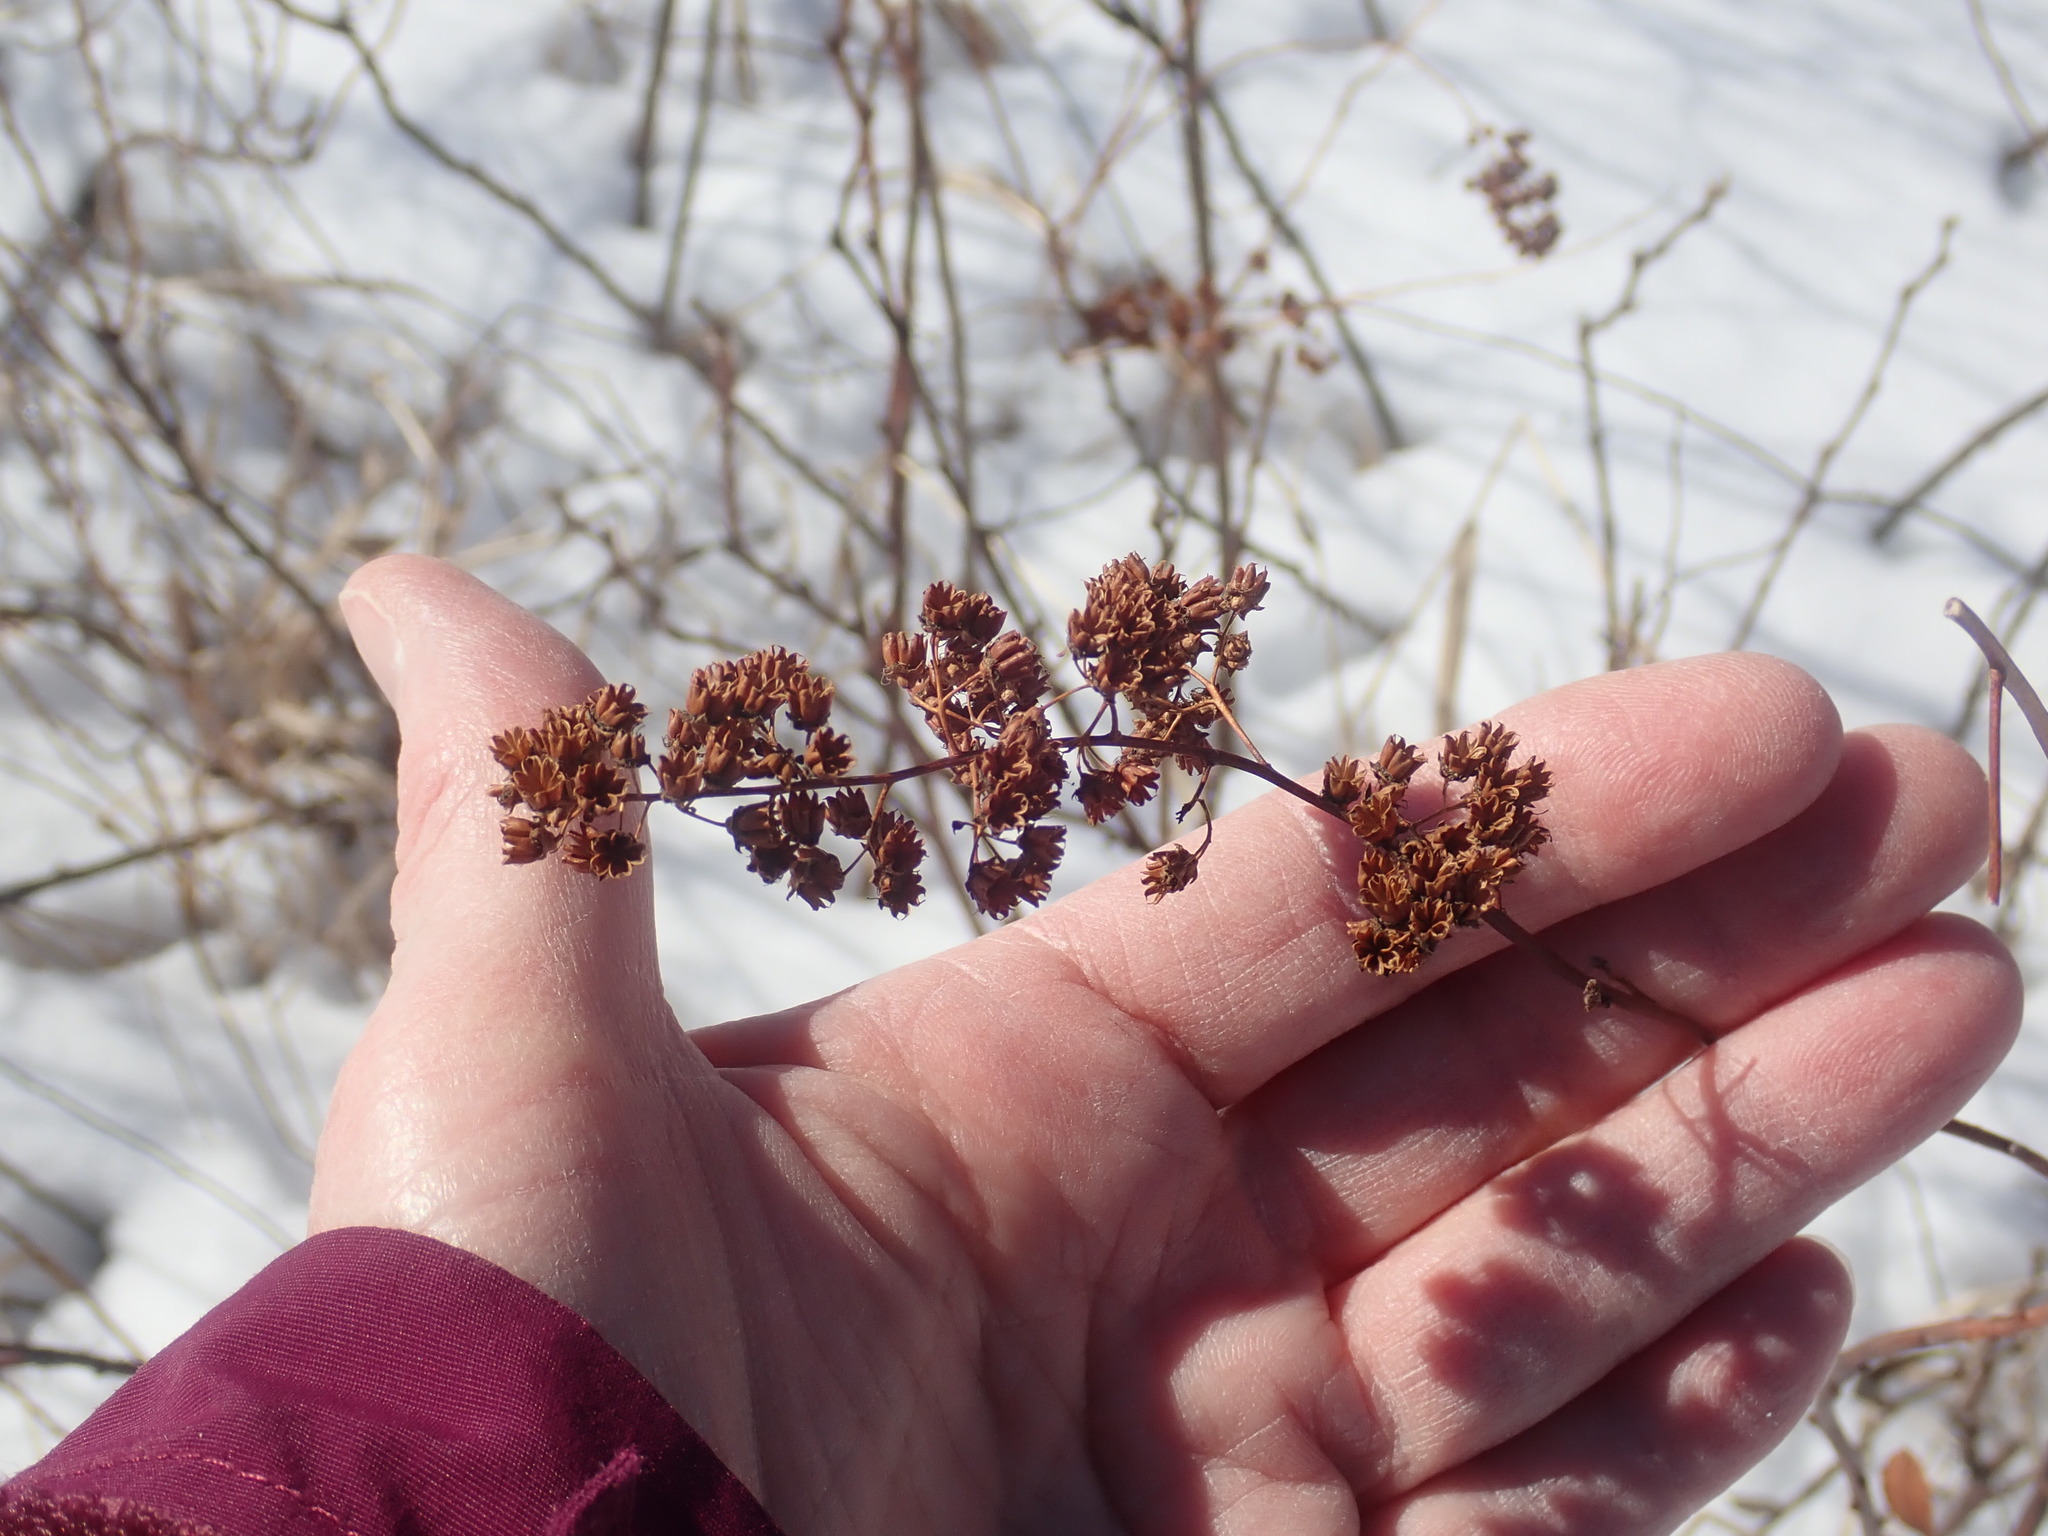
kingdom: Plantae
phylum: Tracheophyta
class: Magnoliopsida
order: Rosales
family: Rosaceae
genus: Spiraea
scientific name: Spiraea alba
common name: Pale bridewort
